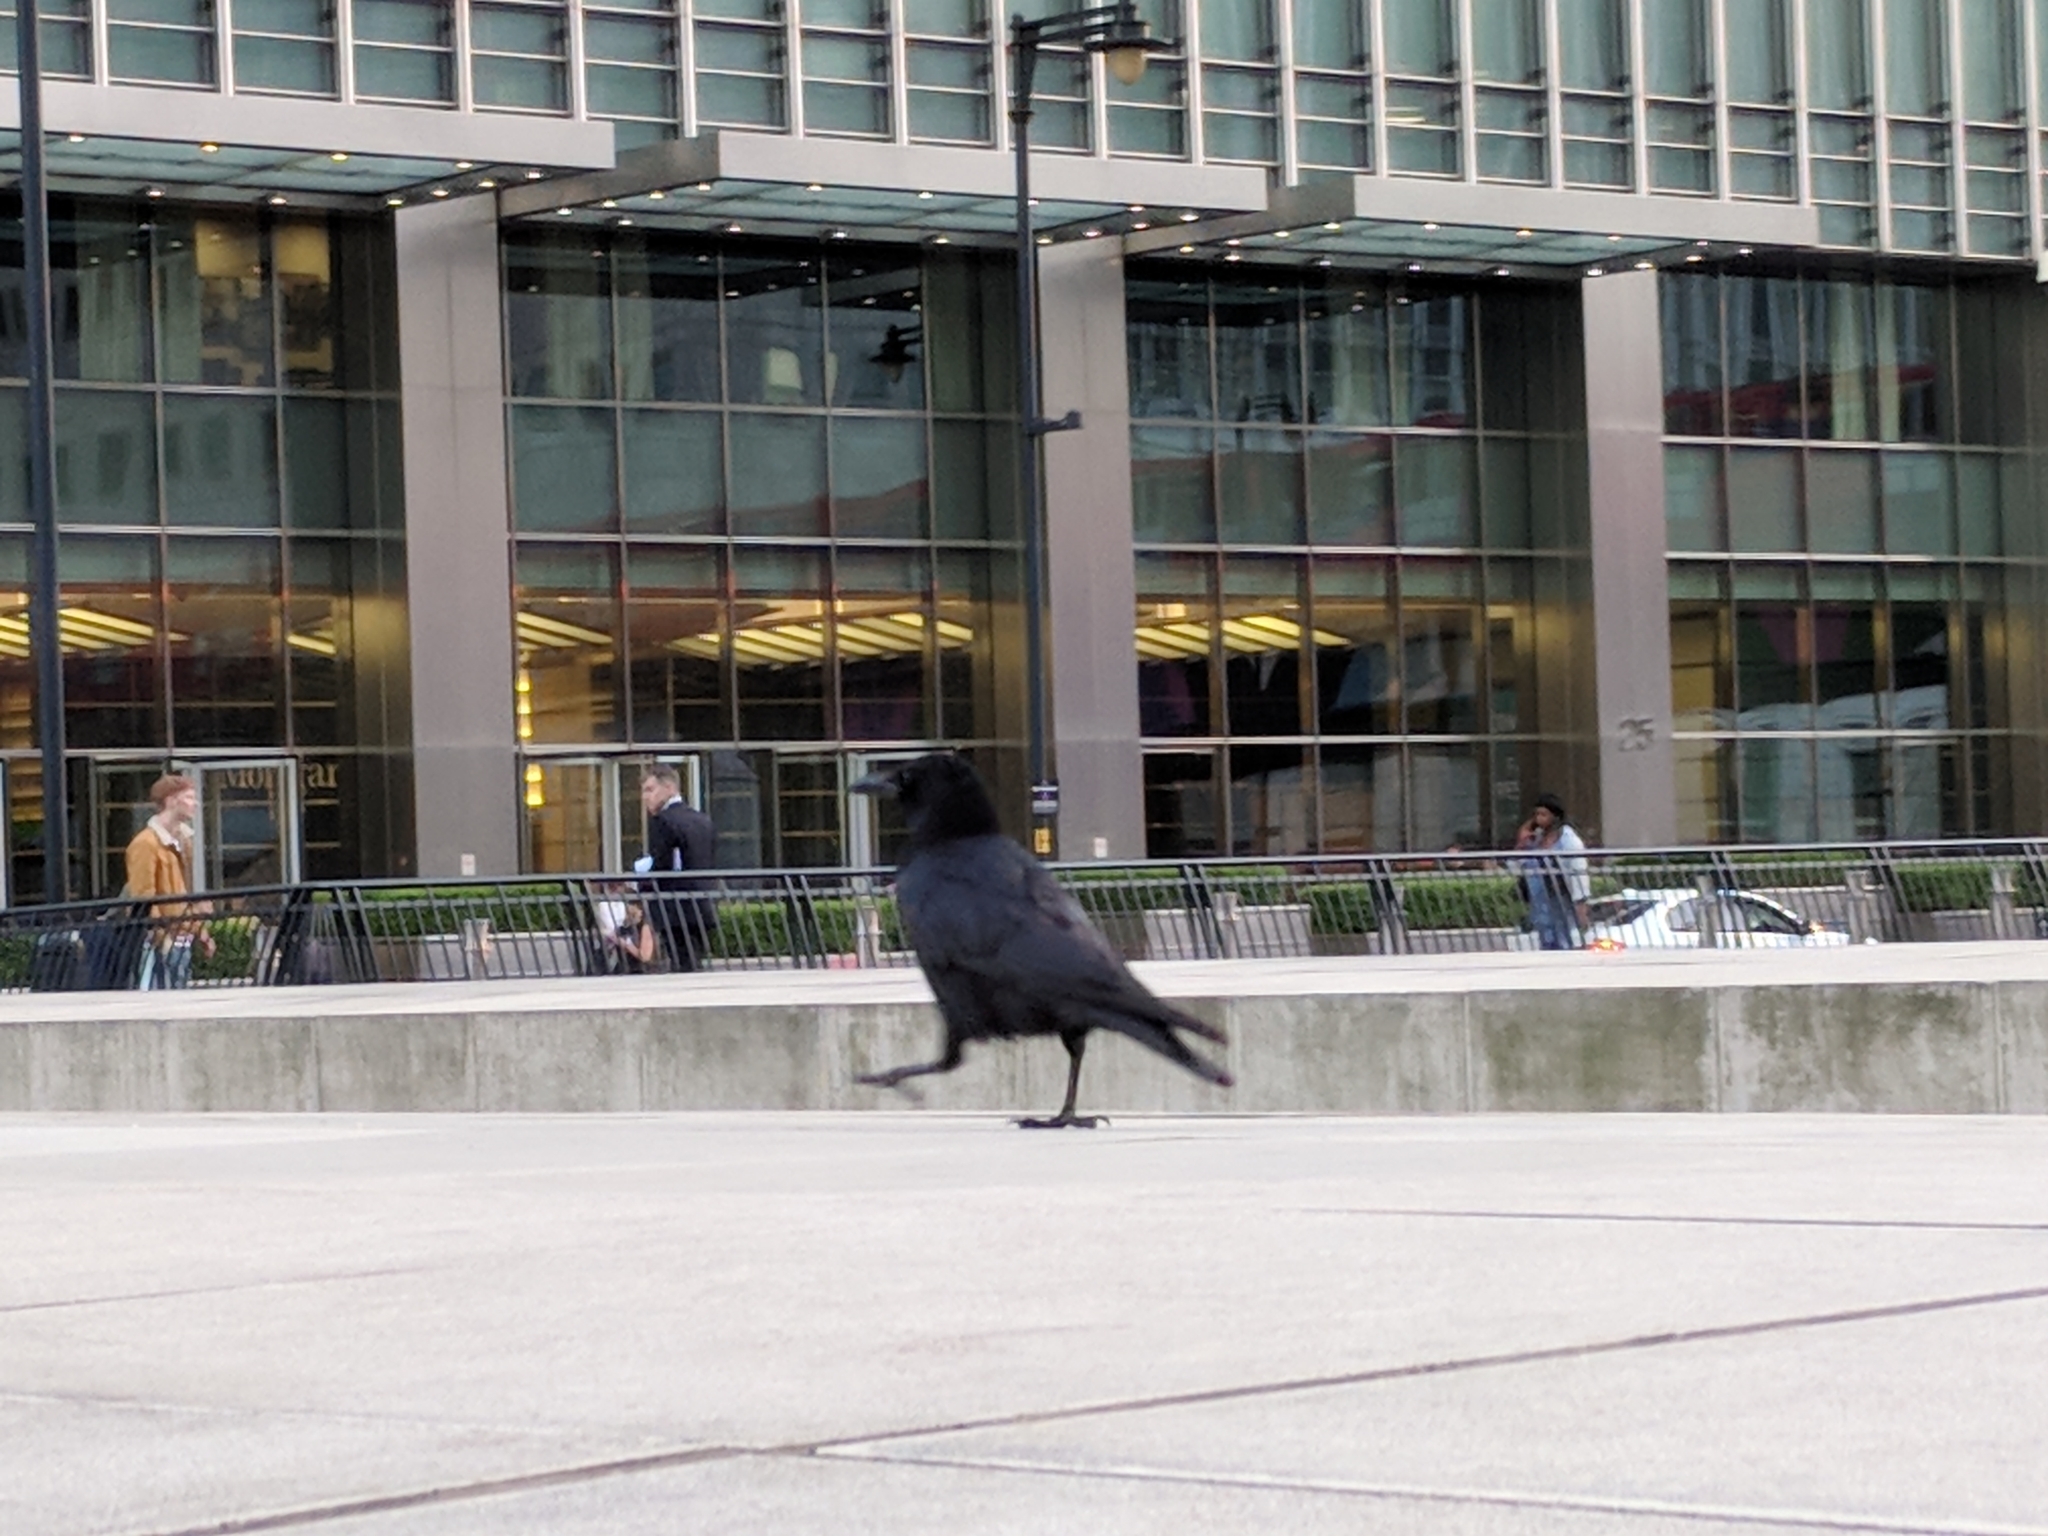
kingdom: Animalia
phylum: Chordata
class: Aves
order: Passeriformes
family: Corvidae
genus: Corvus
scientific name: Corvus corone
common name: Carrion crow
